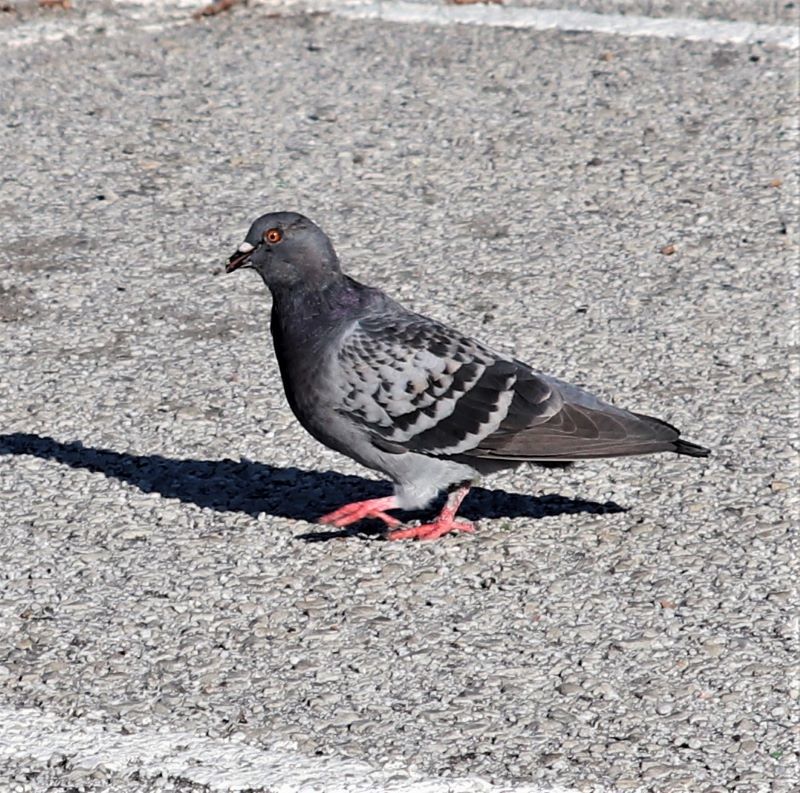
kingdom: Animalia
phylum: Chordata
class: Aves
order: Columbiformes
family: Columbidae
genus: Columba
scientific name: Columba livia
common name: Rock pigeon
